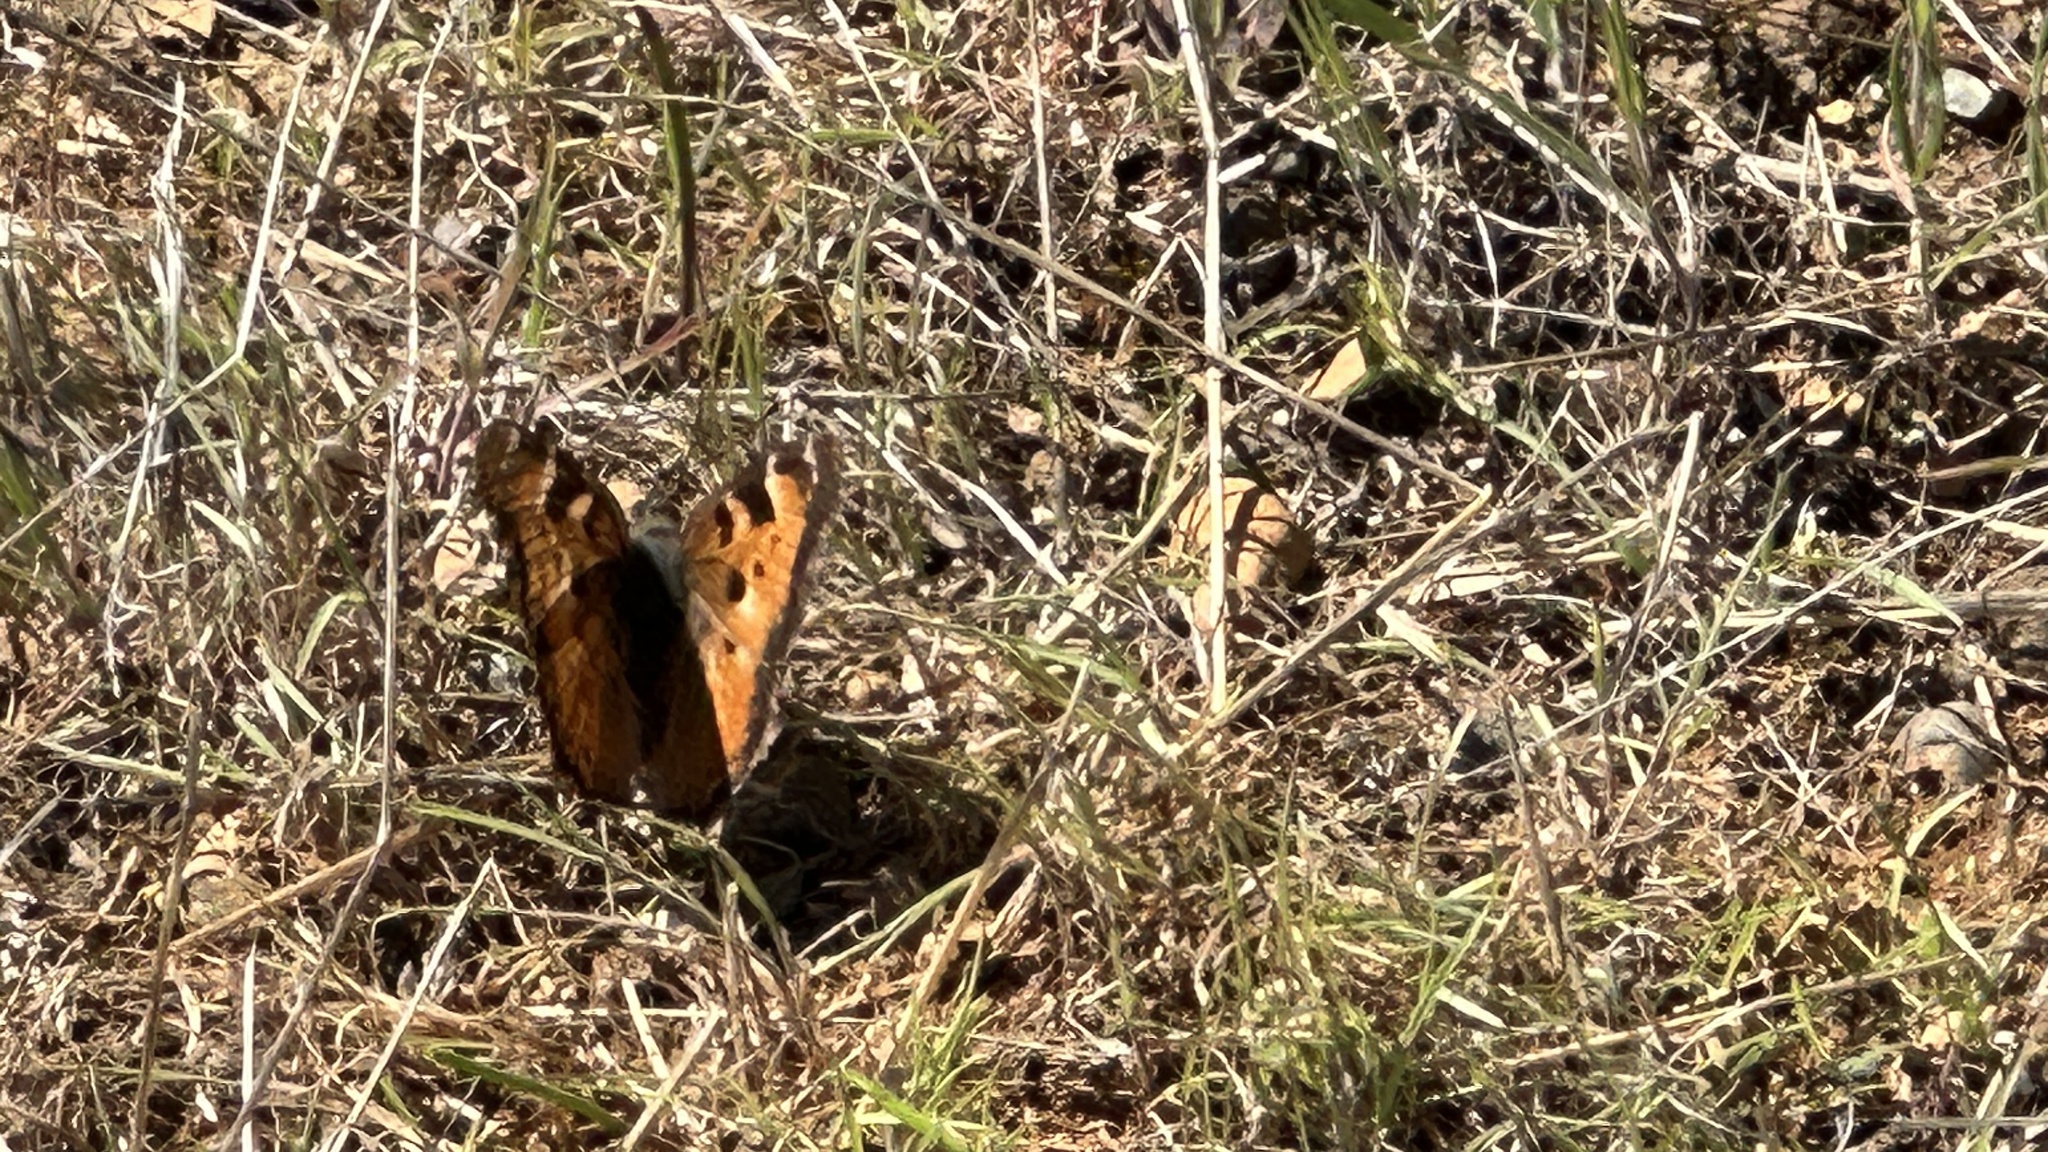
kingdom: Animalia
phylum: Arthropoda
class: Insecta
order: Lepidoptera
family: Nymphalidae
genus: Nymphalis
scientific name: Nymphalis californica
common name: California tortoiseshell
